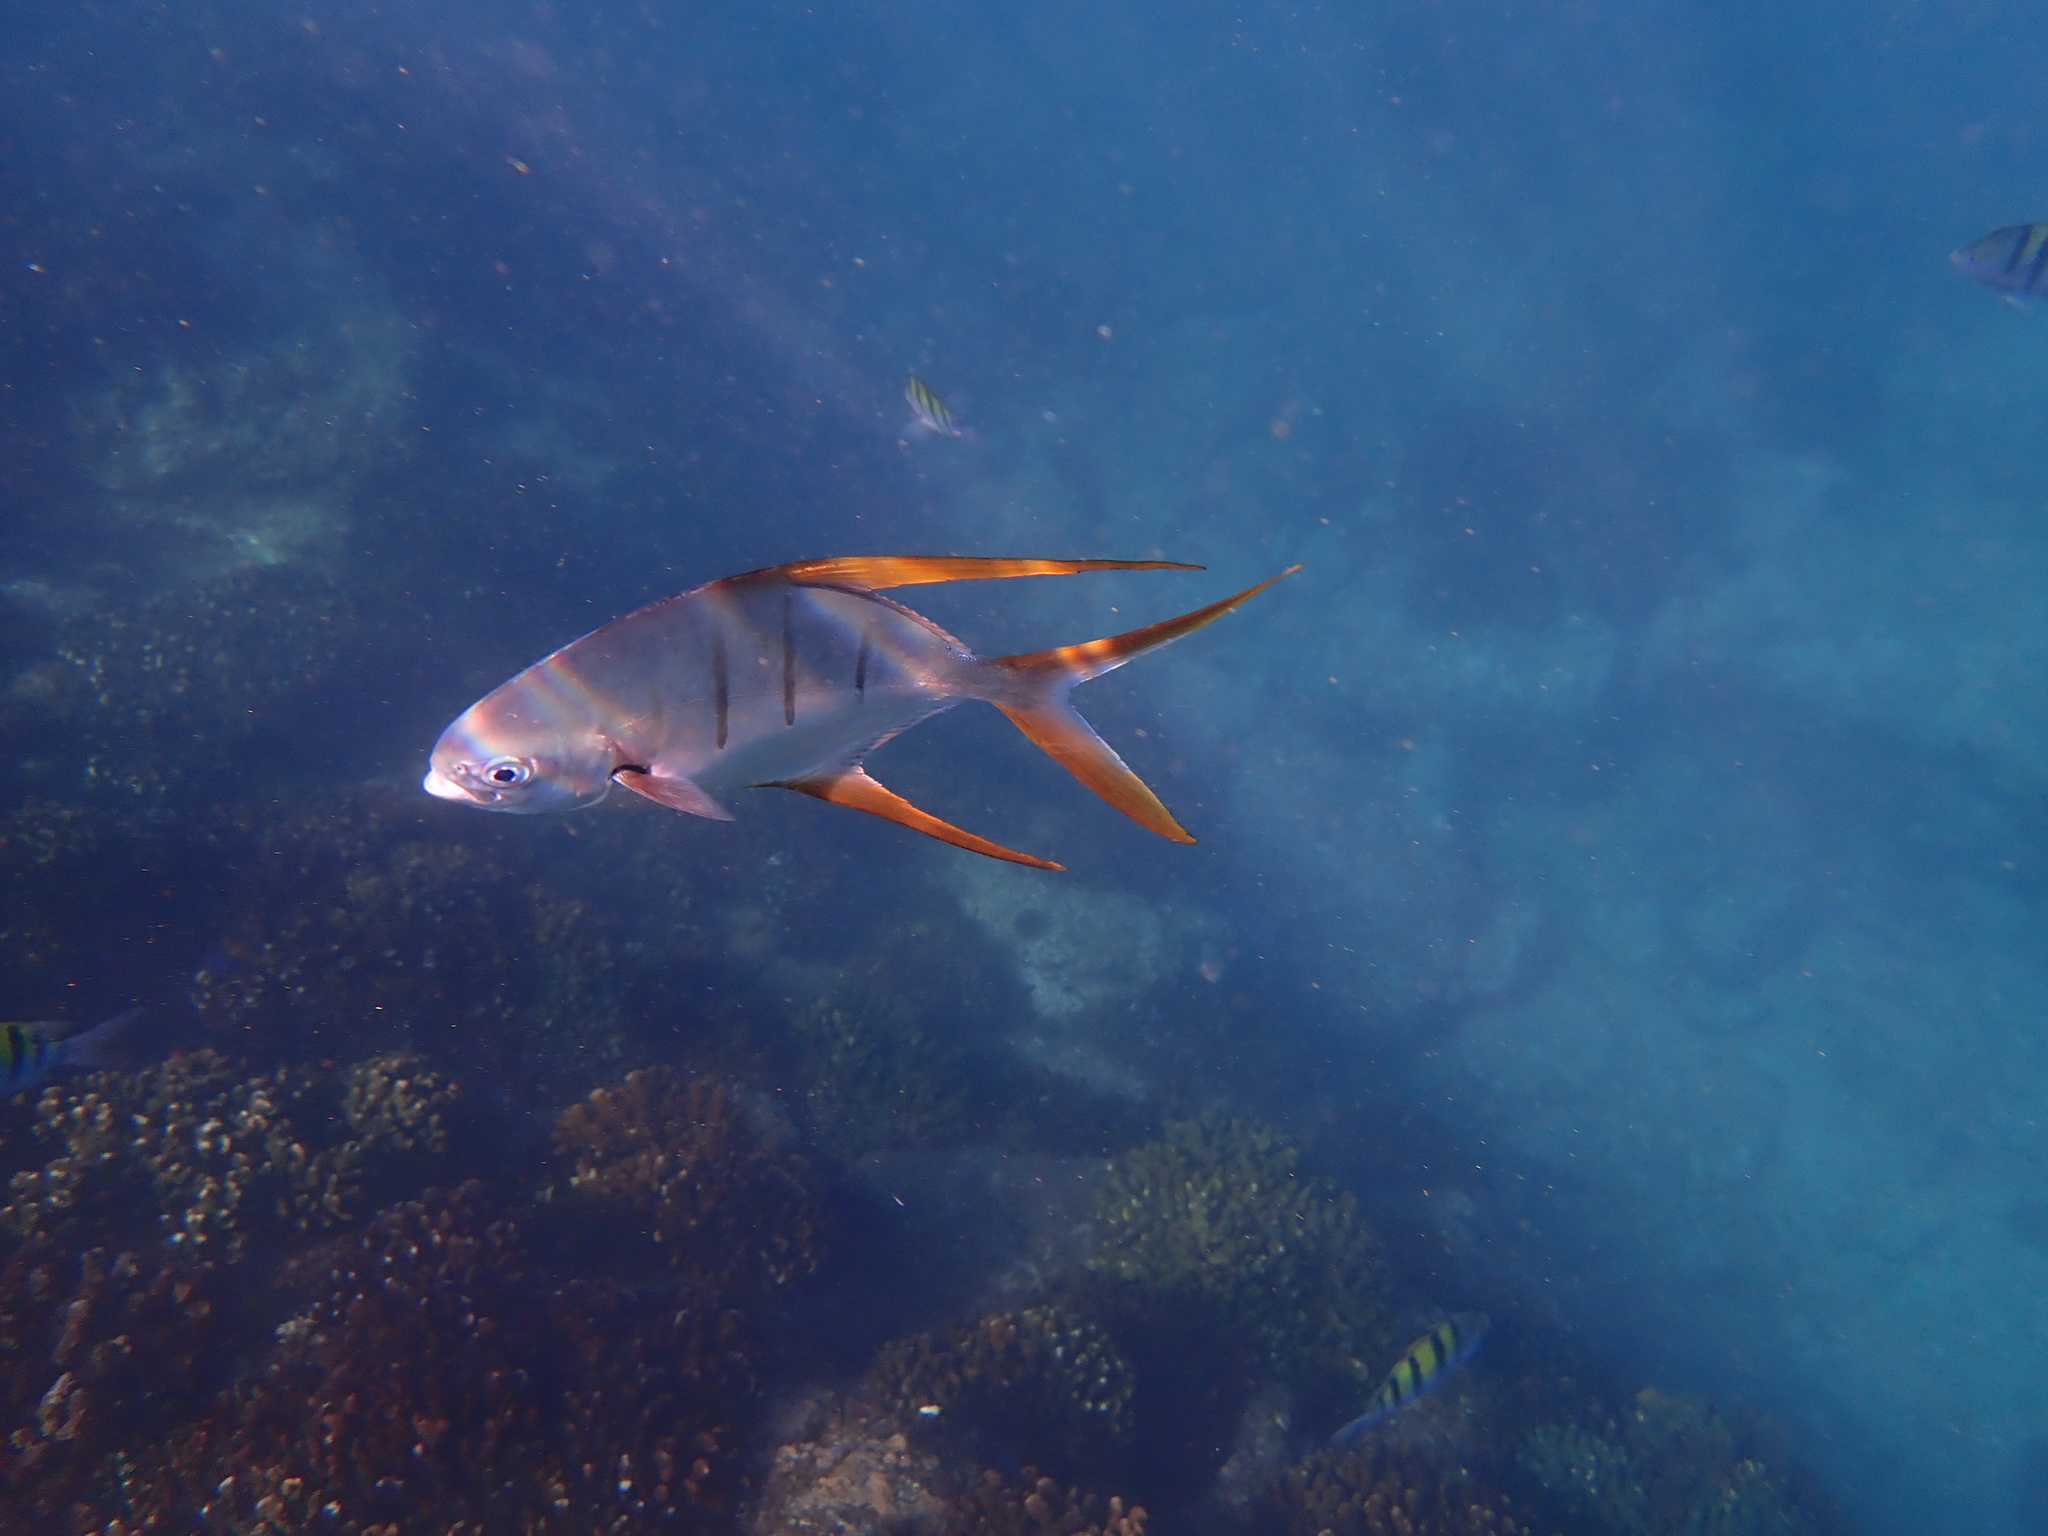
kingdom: Animalia
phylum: Chordata
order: Perciformes
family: Carangidae
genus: Trachinotus
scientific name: Trachinotus rhodopus
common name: Gafftopsail pompano
